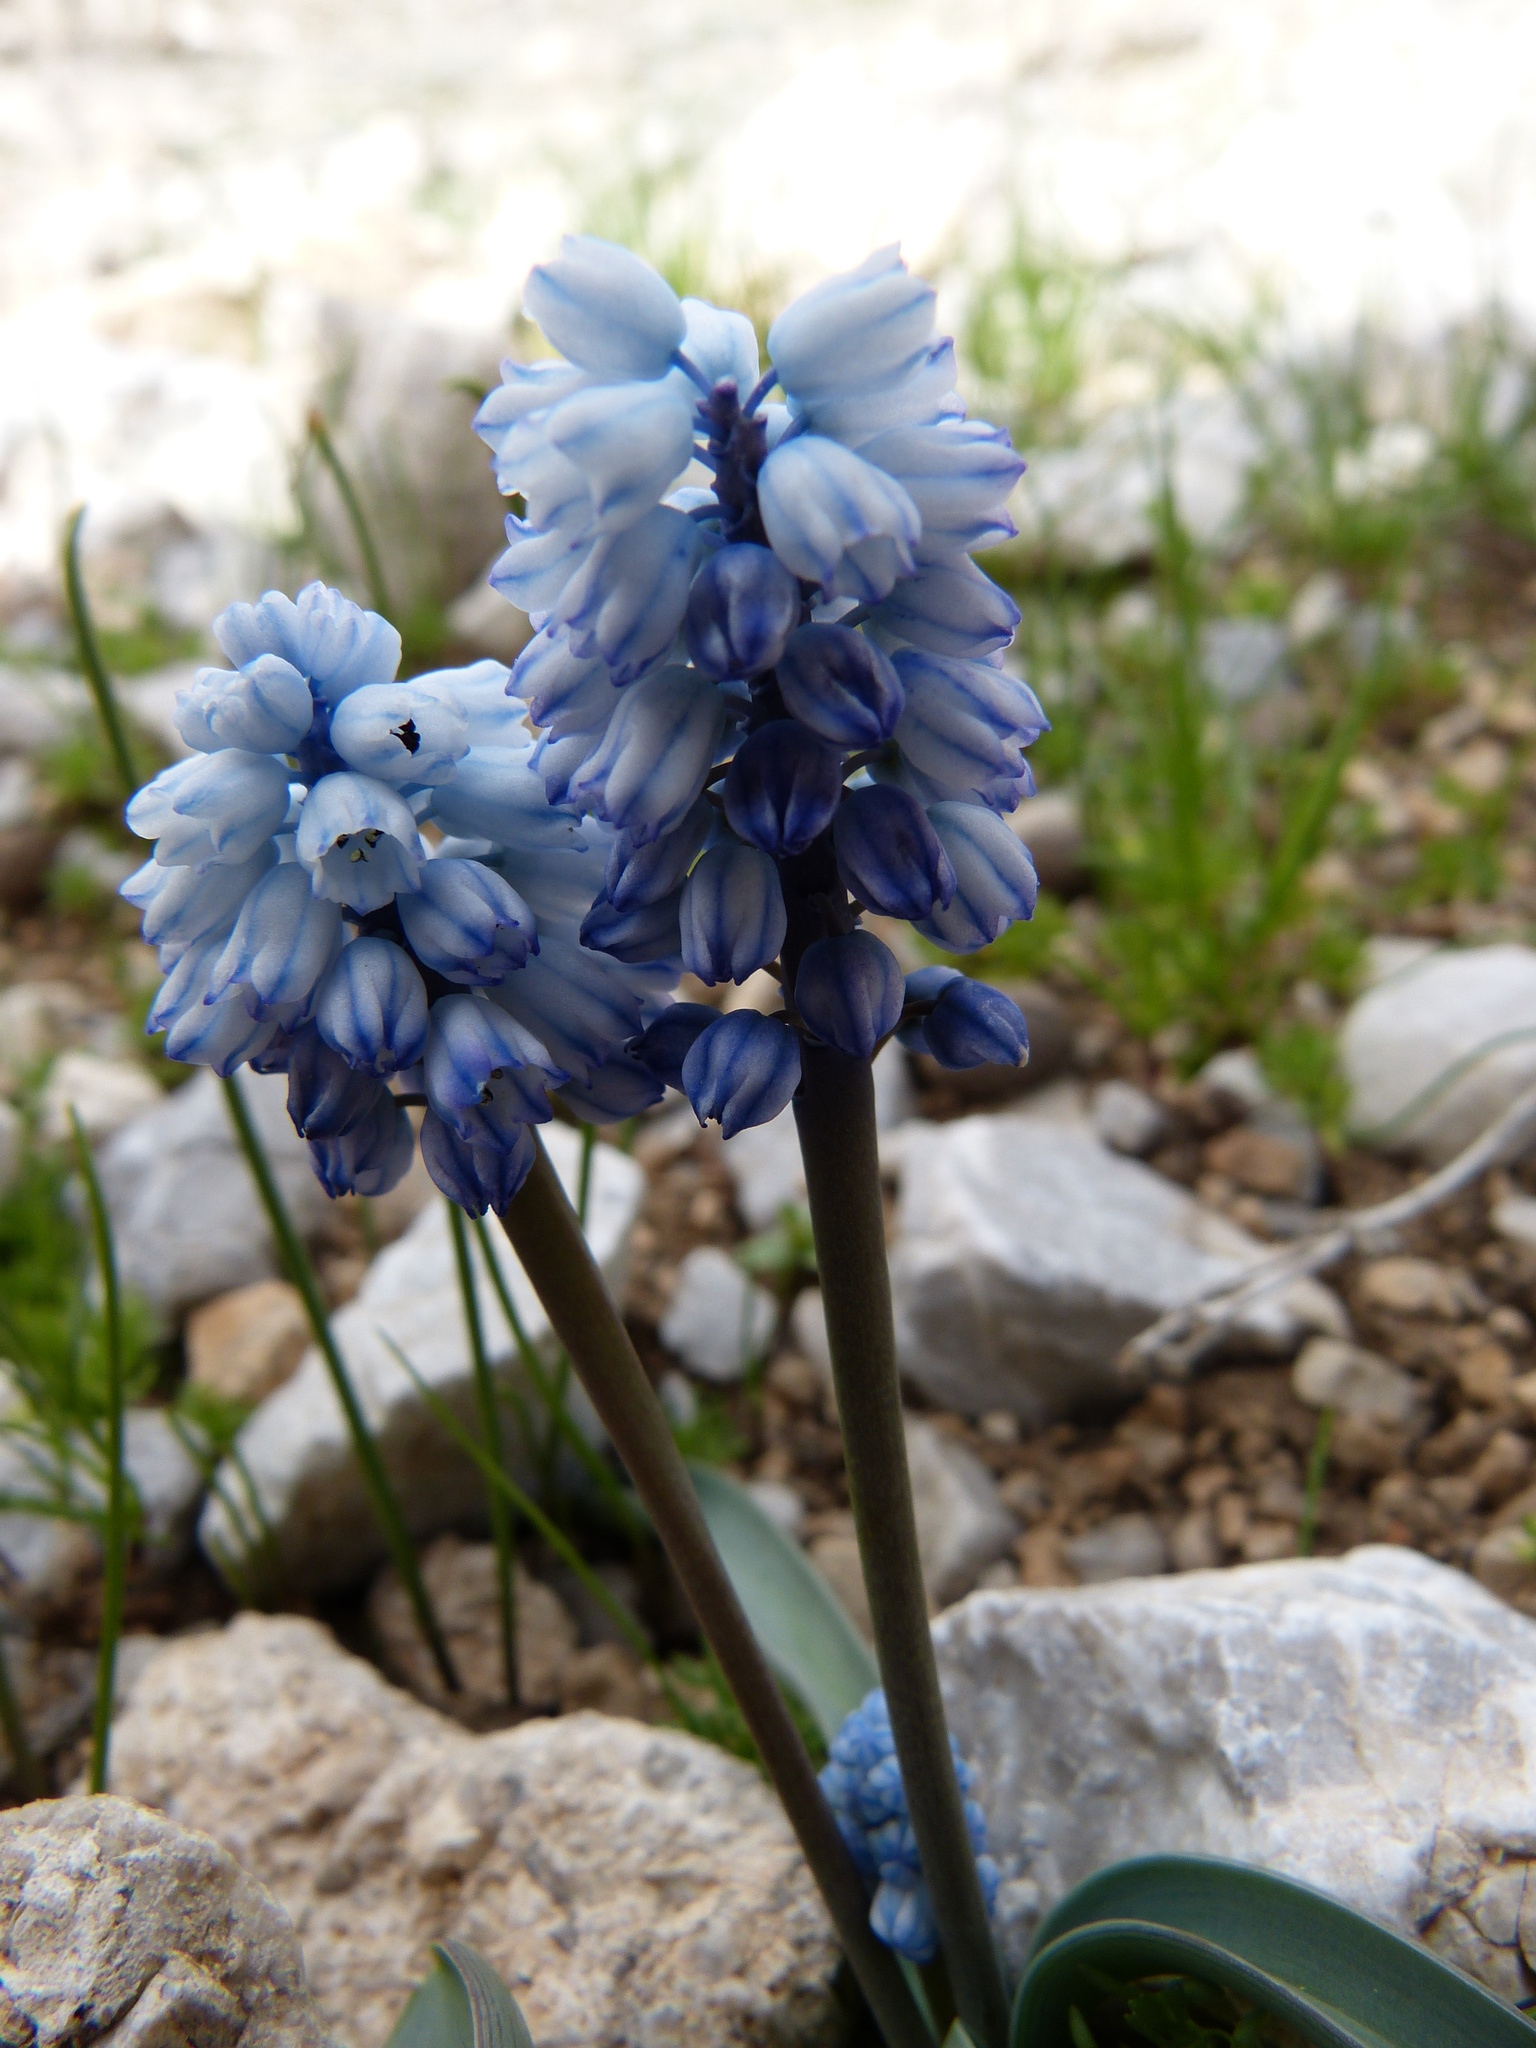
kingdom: Plantae
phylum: Tracheophyta
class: Liliopsida
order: Asparagales
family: Asparagaceae
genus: Muscari
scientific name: Muscari azureum
